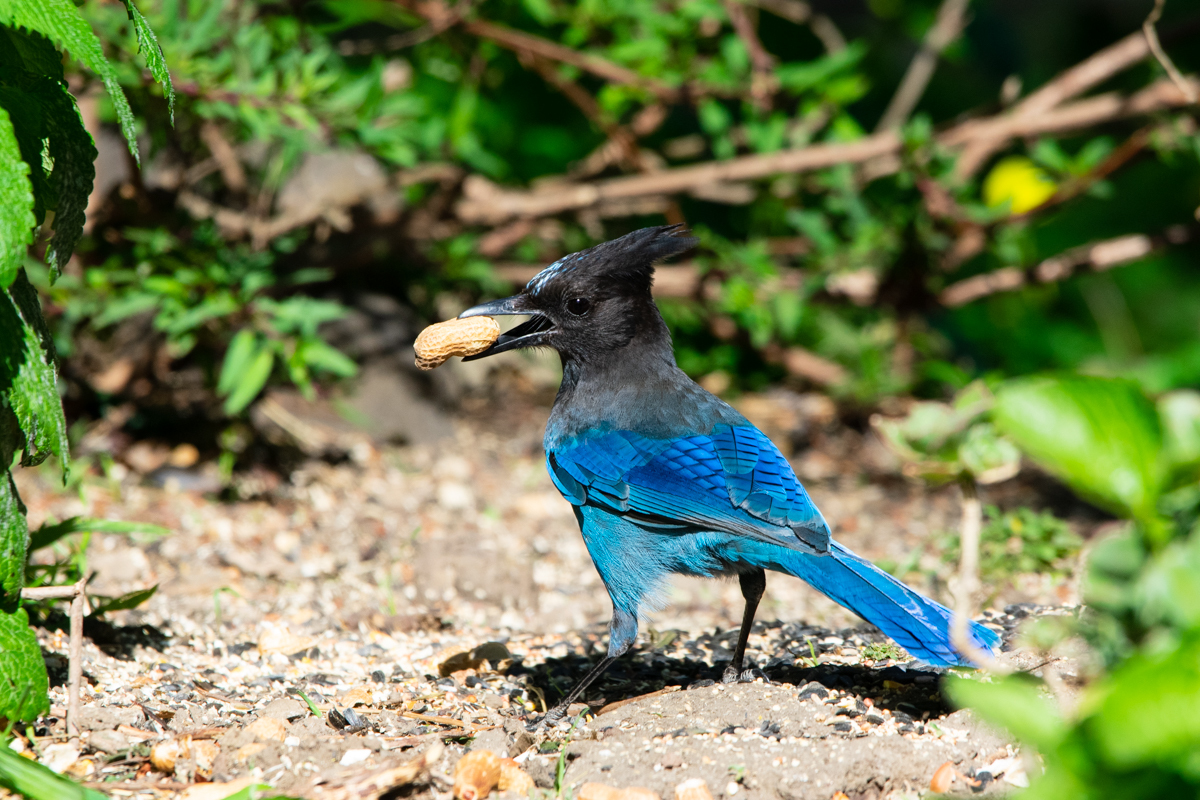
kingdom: Animalia
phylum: Chordata
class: Aves
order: Passeriformes
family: Corvidae
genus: Cyanocitta
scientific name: Cyanocitta stelleri
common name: Steller's jay
